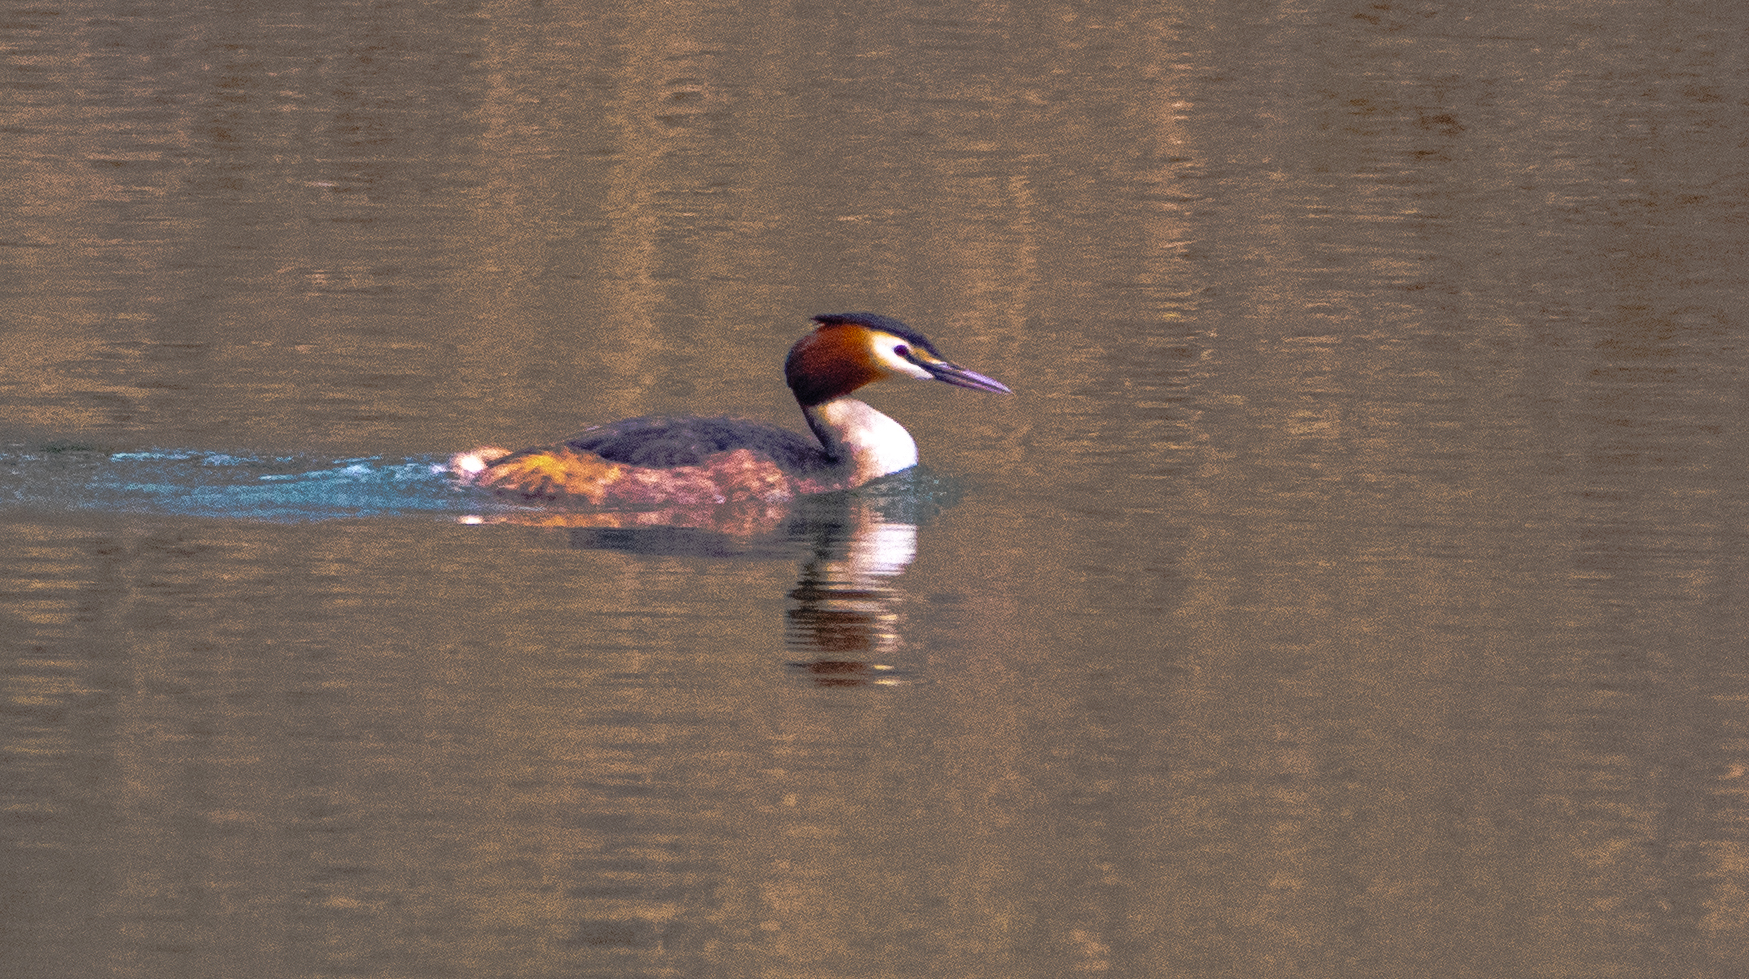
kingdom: Animalia
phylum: Chordata
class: Aves
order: Podicipediformes
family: Podicipedidae
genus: Podiceps
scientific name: Podiceps cristatus
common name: Great crested grebe
